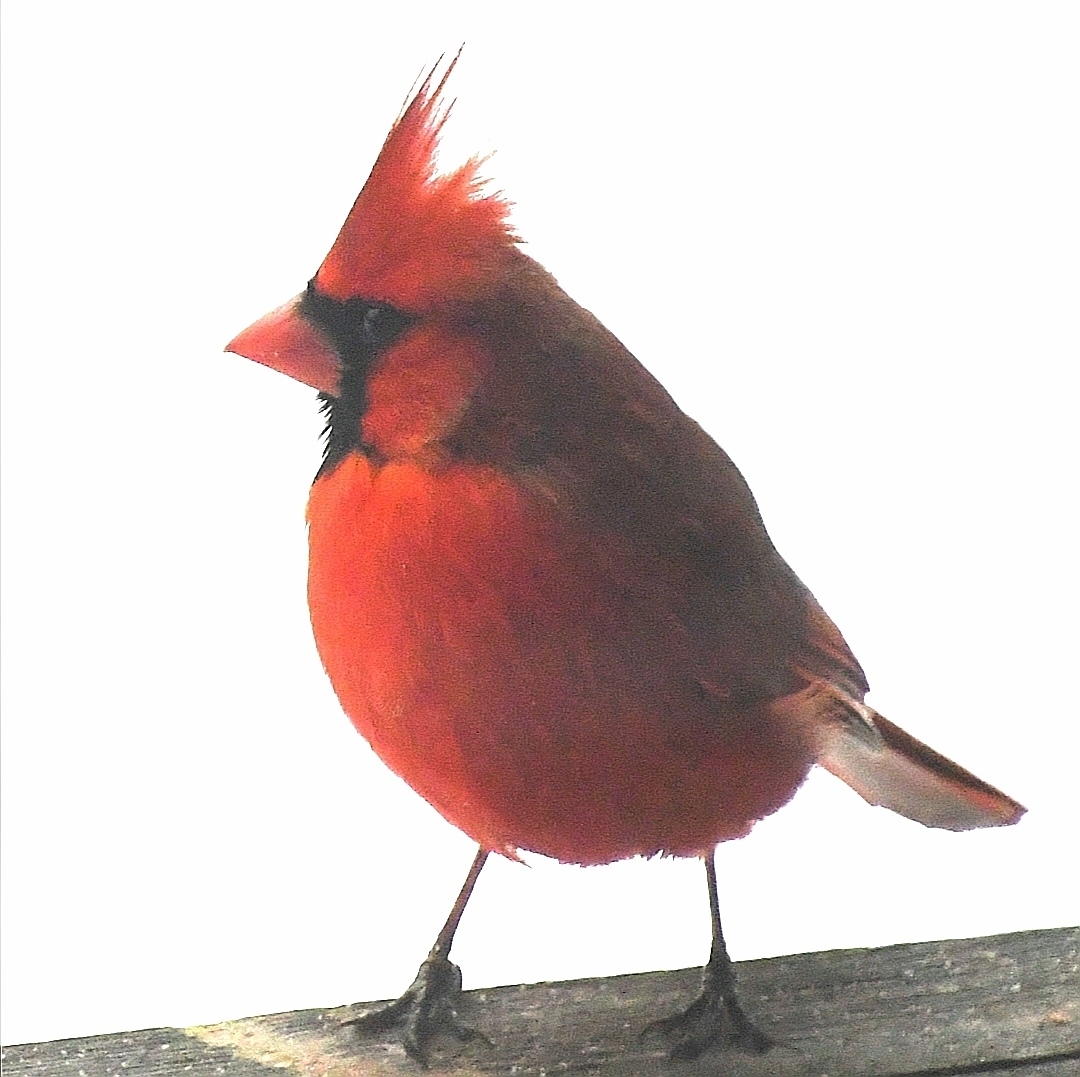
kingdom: Animalia
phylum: Chordata
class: Aves
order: Passeriformes
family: Cardinalidae
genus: Cardinalis
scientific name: Cardinalis cardinalis
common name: Northern cardinal
